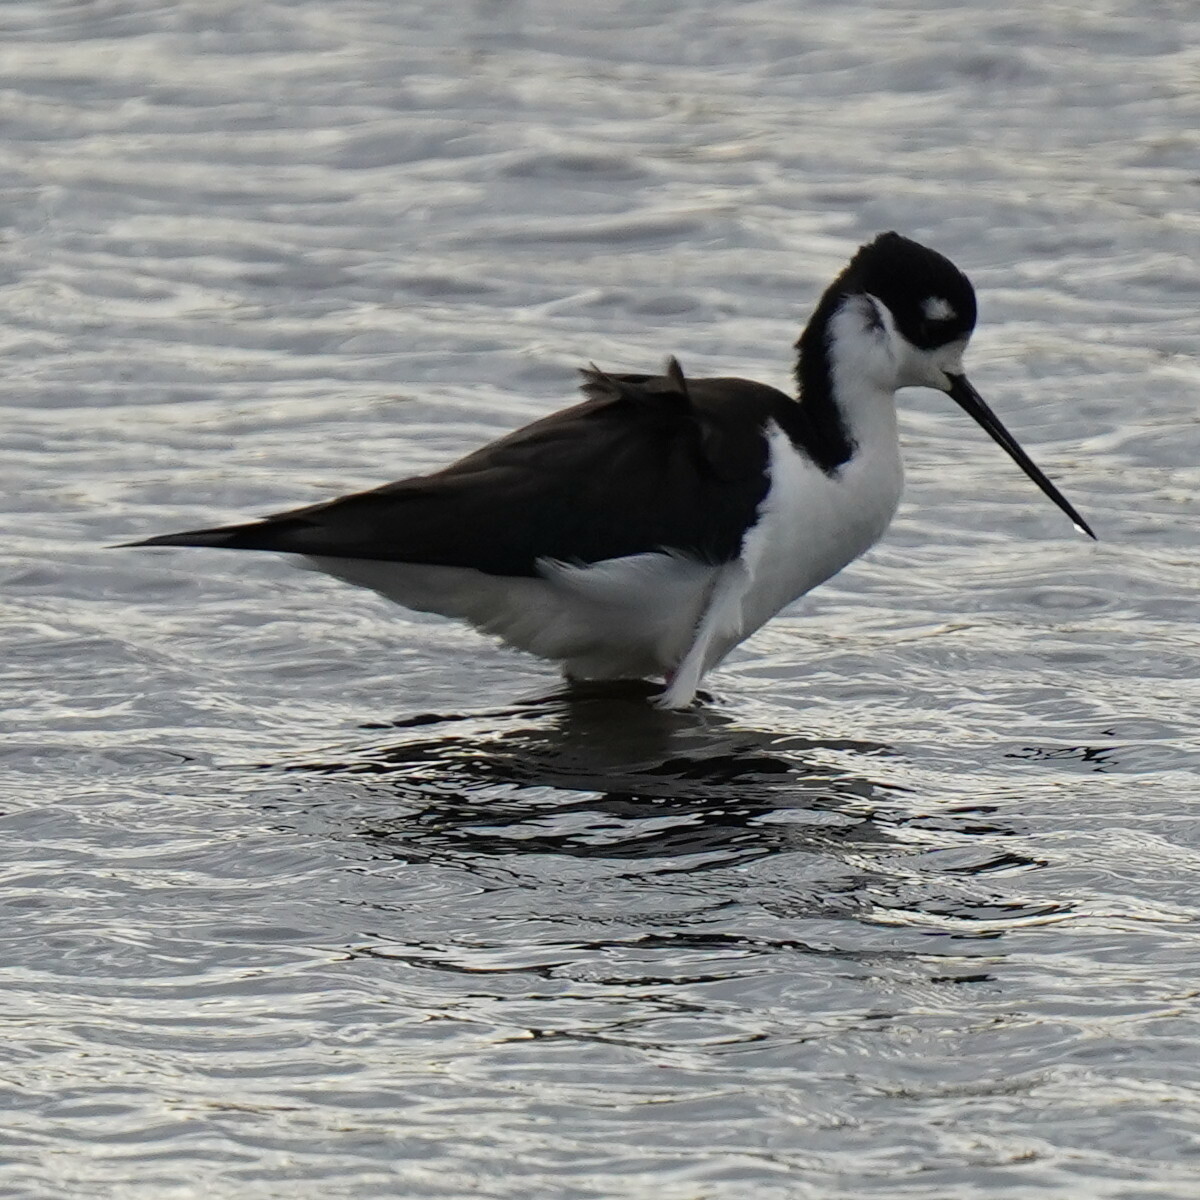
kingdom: Animalia
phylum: Chordata
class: Aves
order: Charadriiformes
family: Recurvirostridae
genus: Himantopus
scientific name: Himantopus mexicanus
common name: Black-necked stilt
